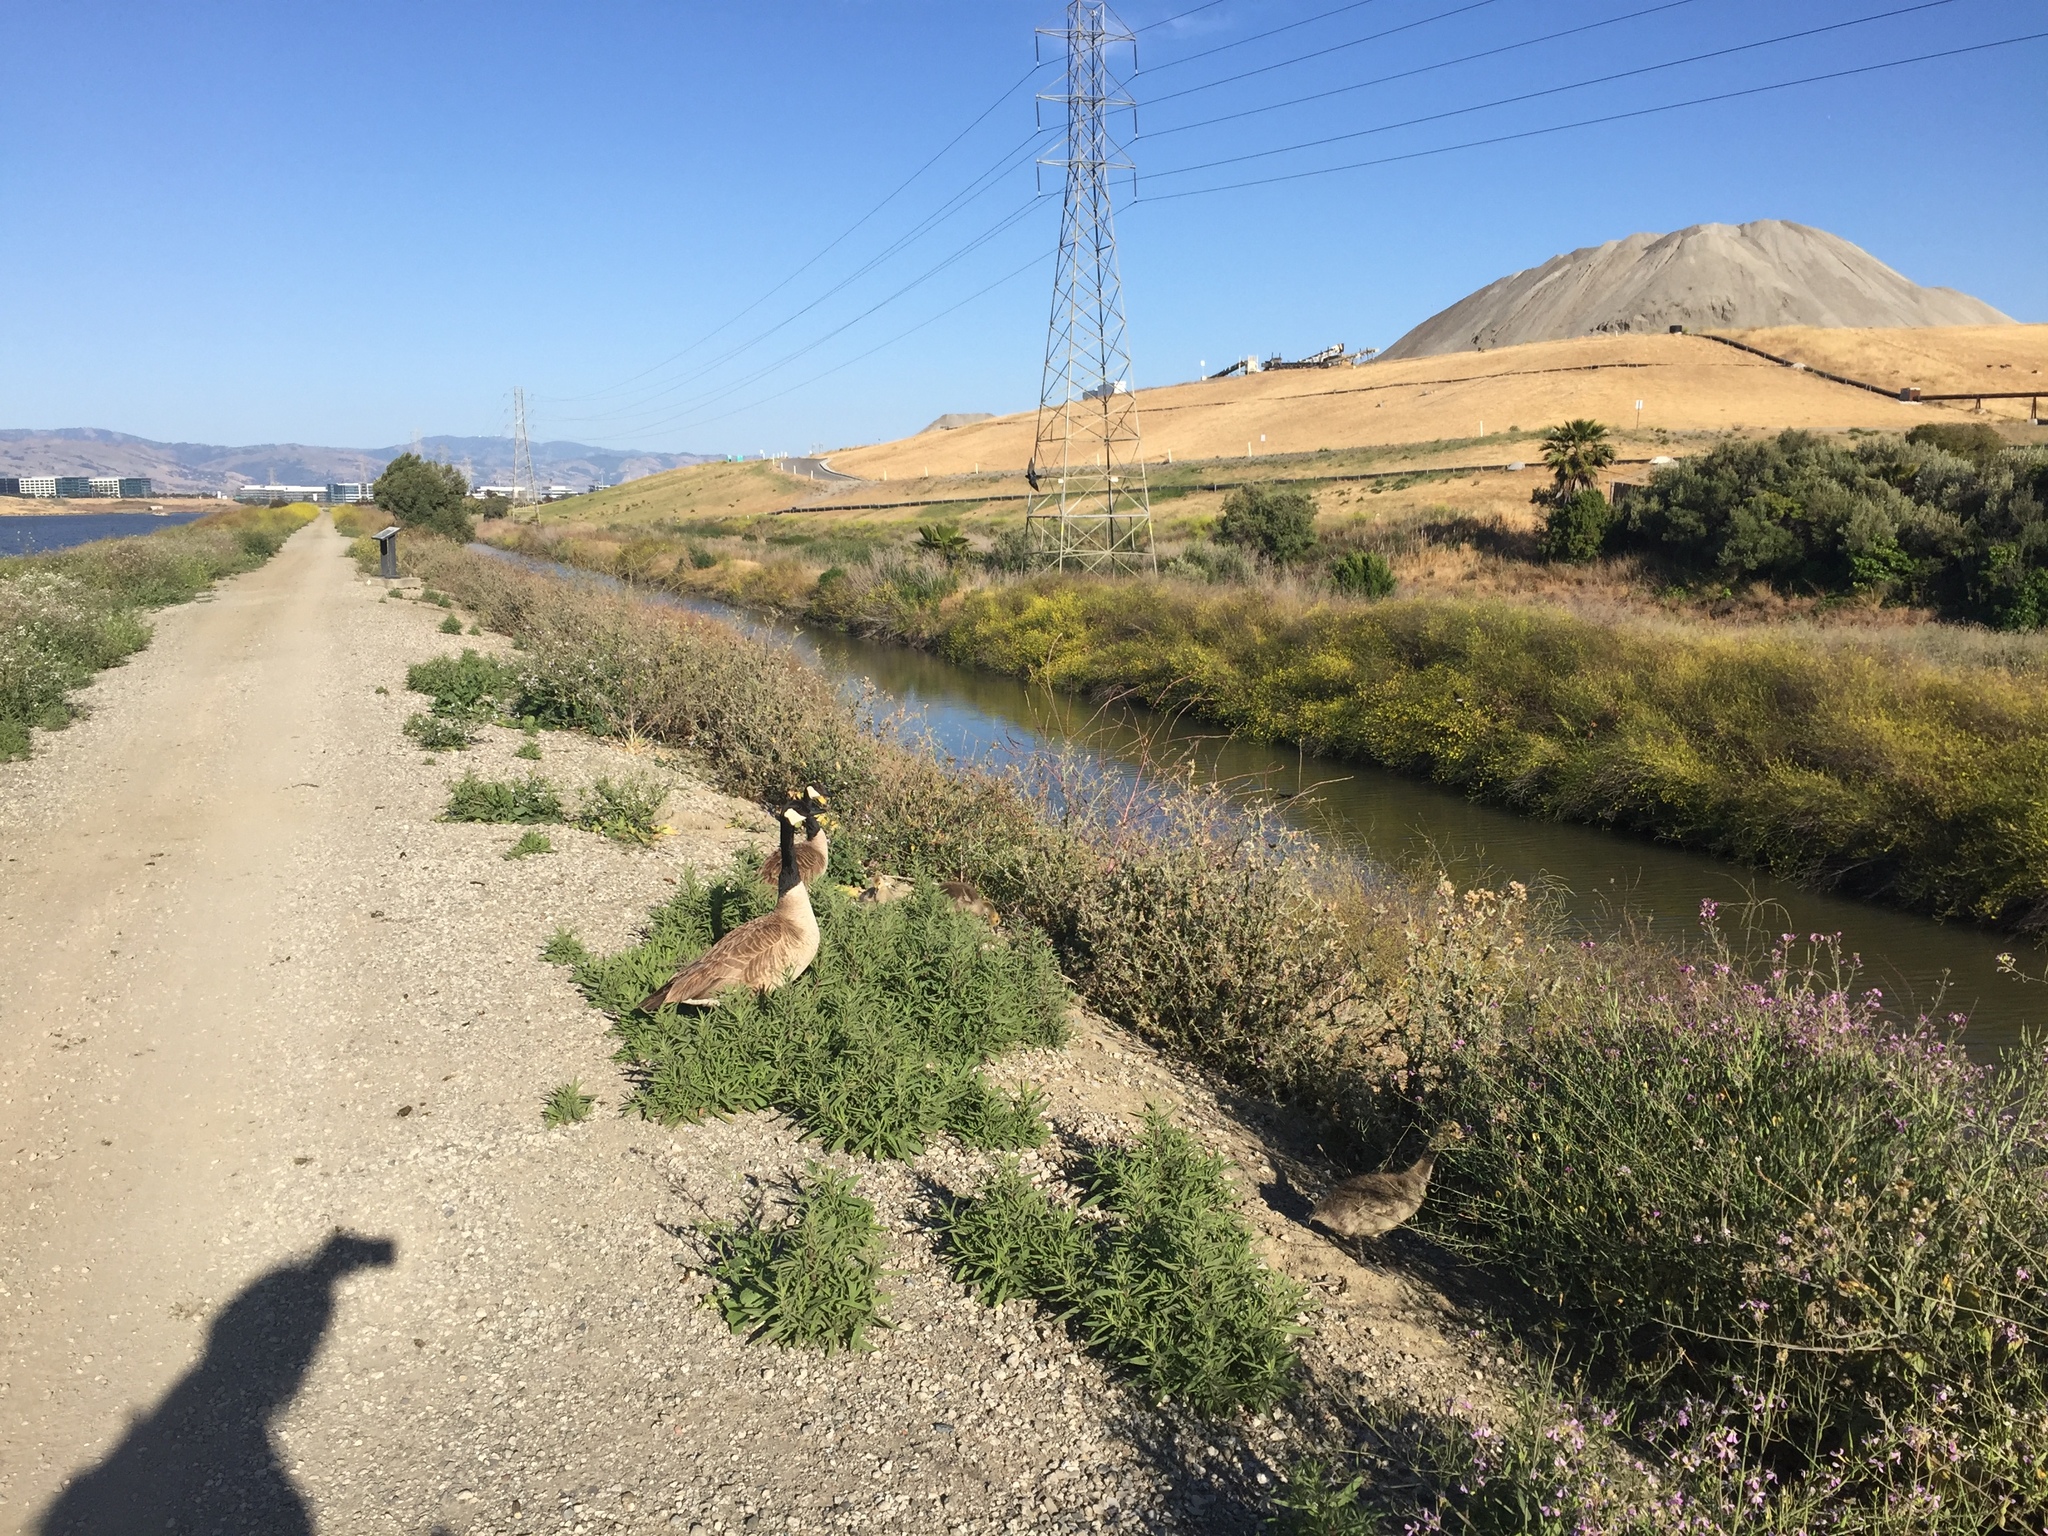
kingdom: Animalia
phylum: Chordata
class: Aves
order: Anseriformes
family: Anatidae
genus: Branta
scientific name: Branta canadensis
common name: Canada goose
